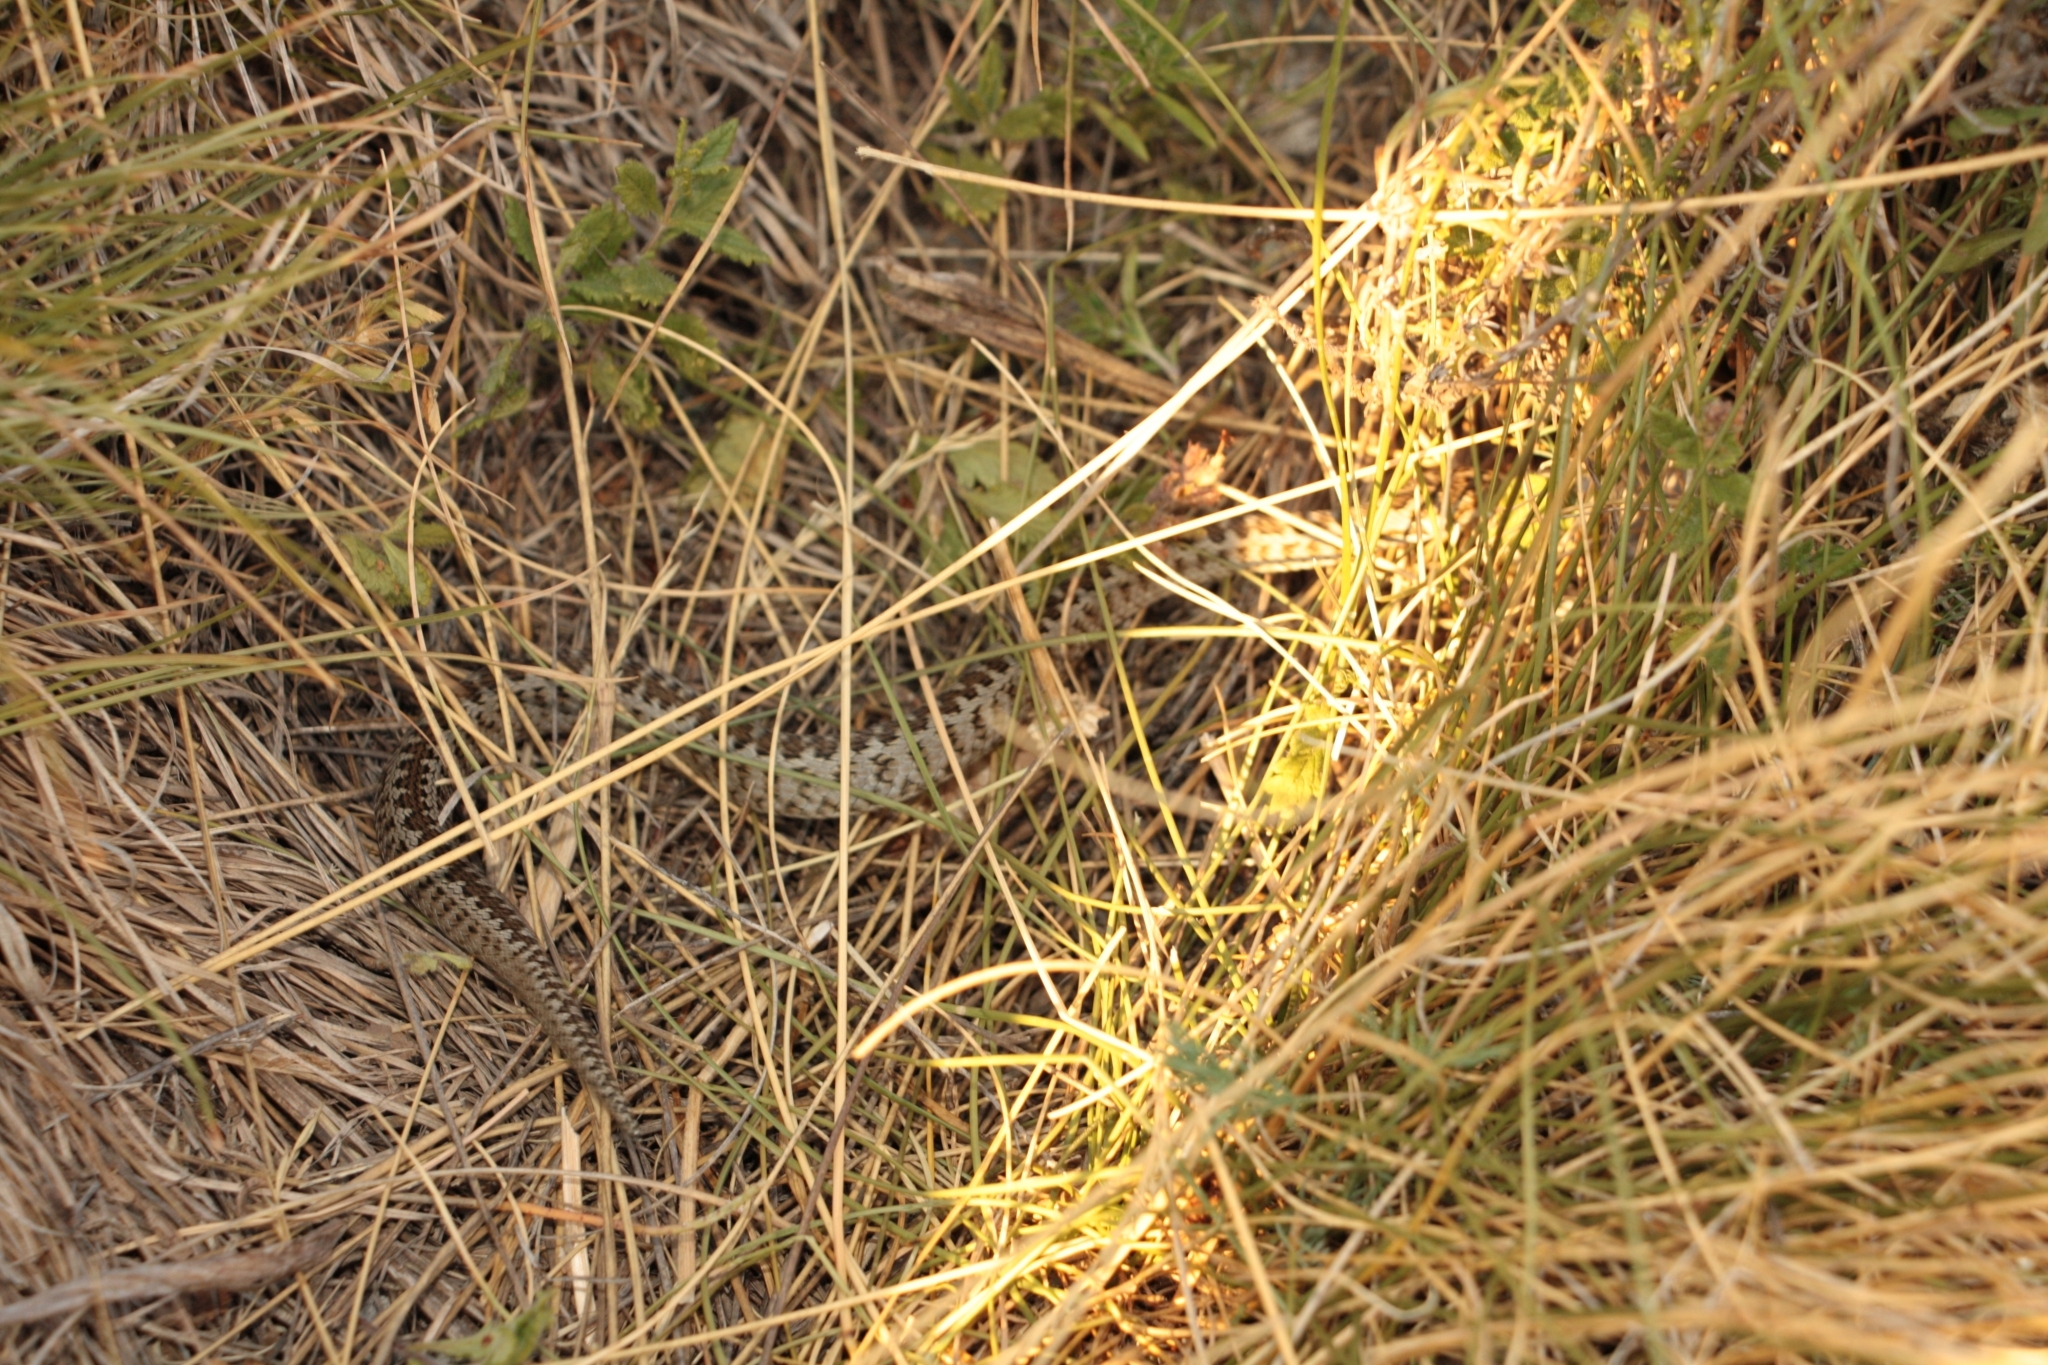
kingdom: Animalia
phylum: Chordata
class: Squamata
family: Viperidae
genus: Vipera
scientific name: Vipera ursinii
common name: Meadow viper
